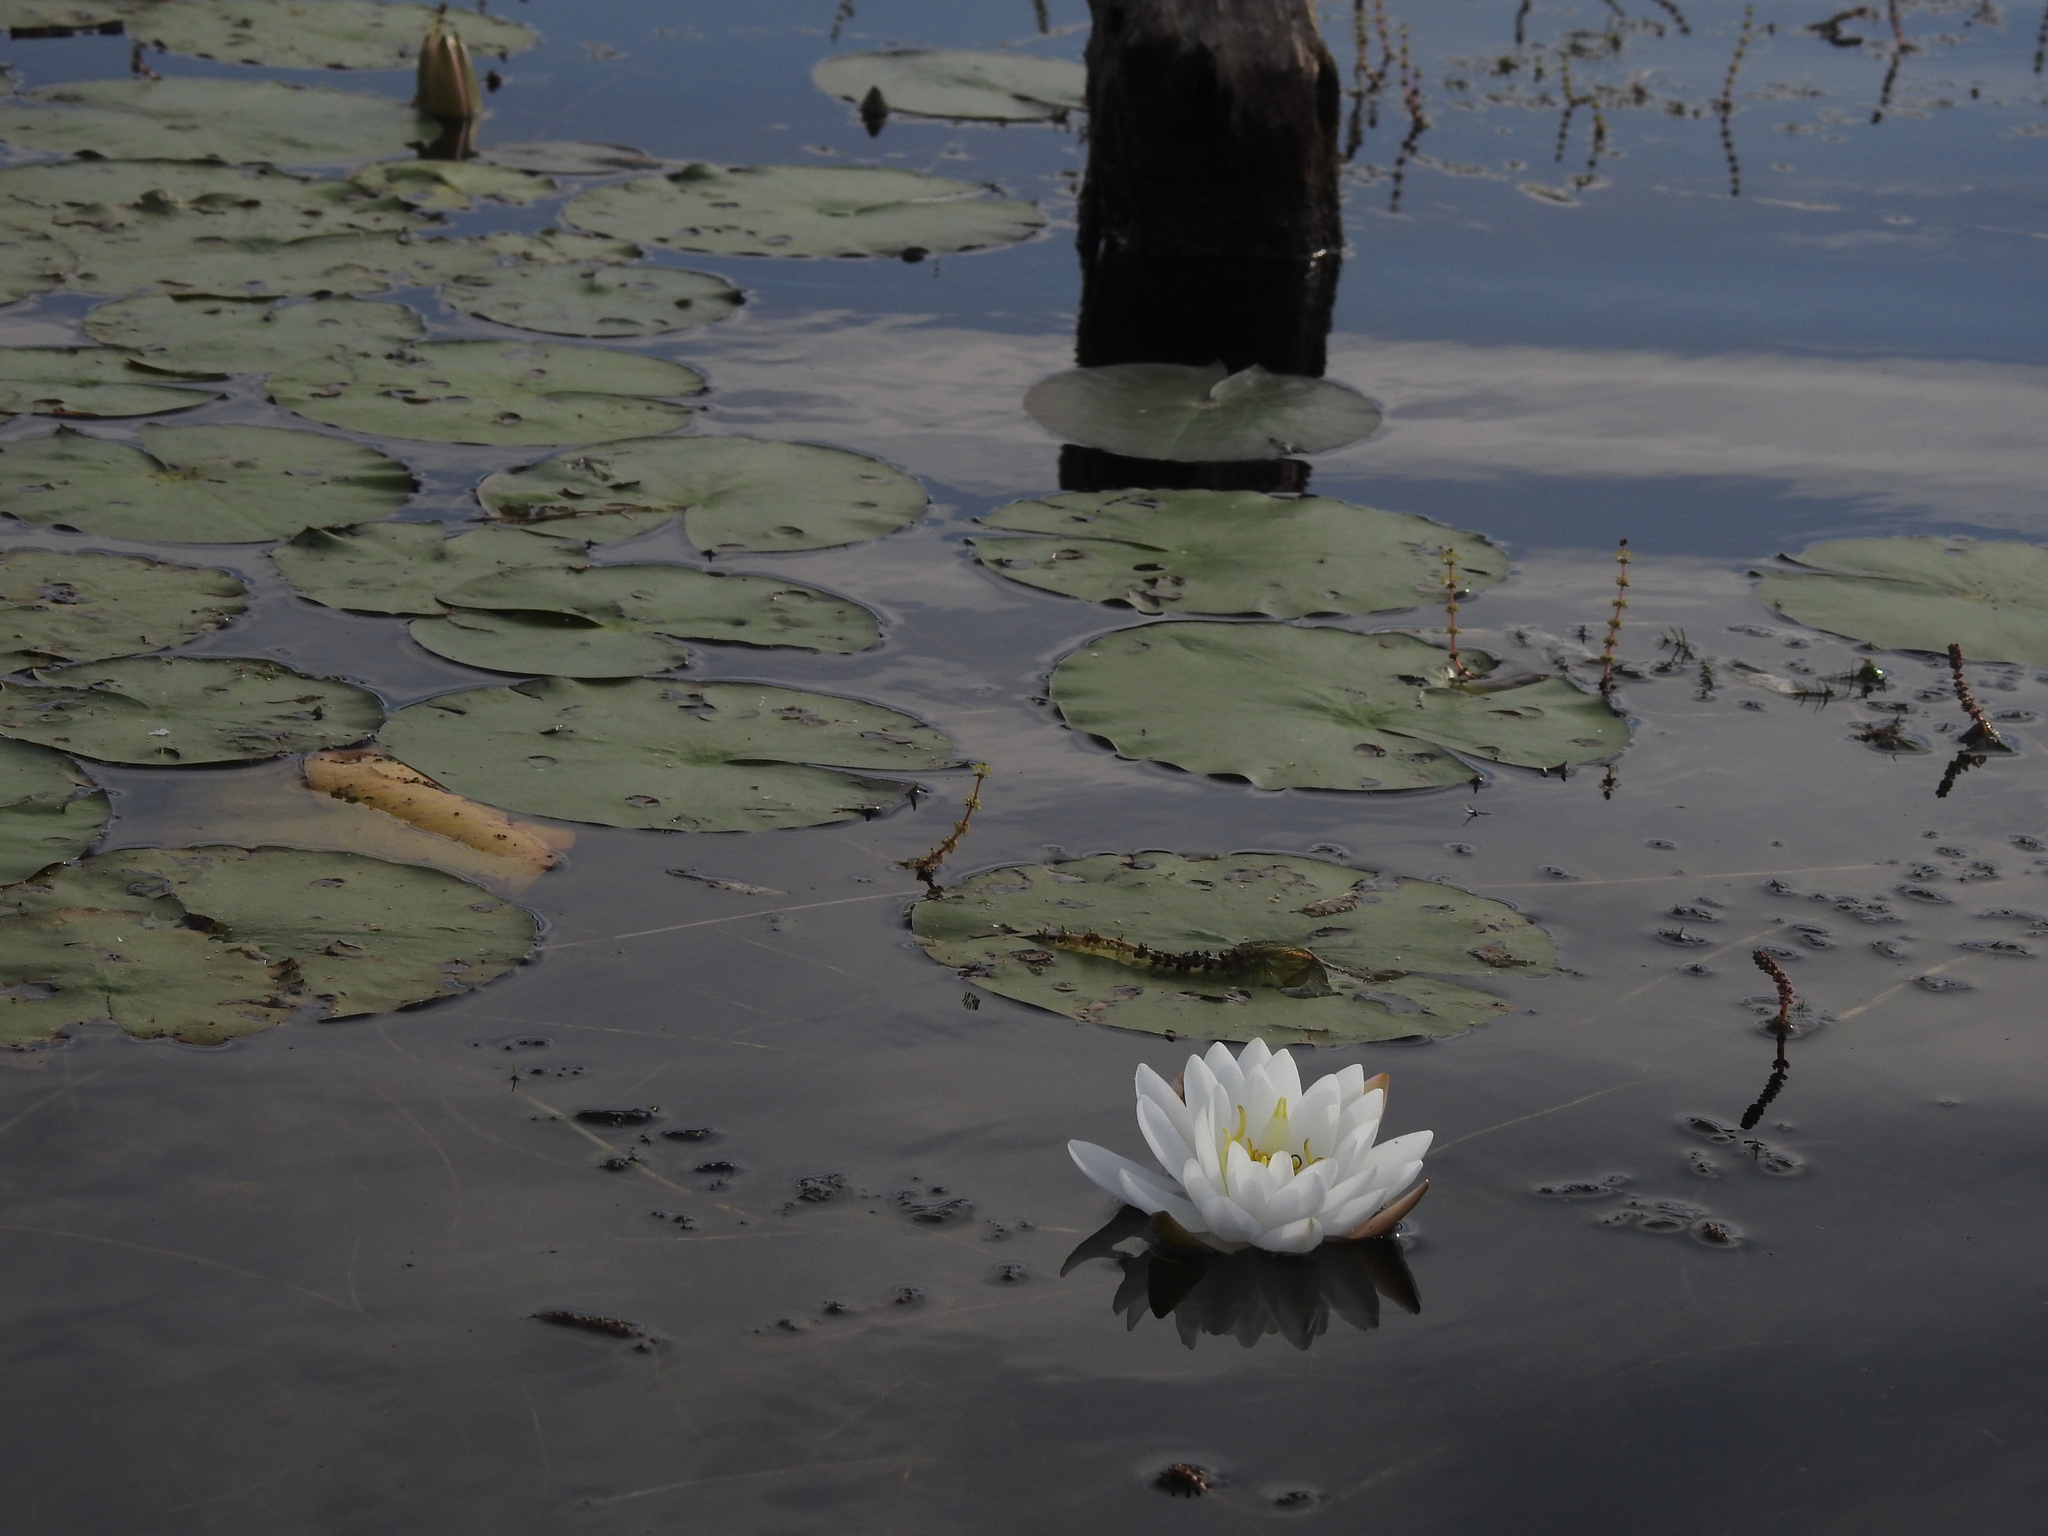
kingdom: Plantae
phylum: Tracheophyta
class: Magnoliopsida
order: Nymphaeales
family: Nymphaeaceae
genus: Nymphaea
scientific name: Nymphaea odorata
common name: Fragrant water-lily
